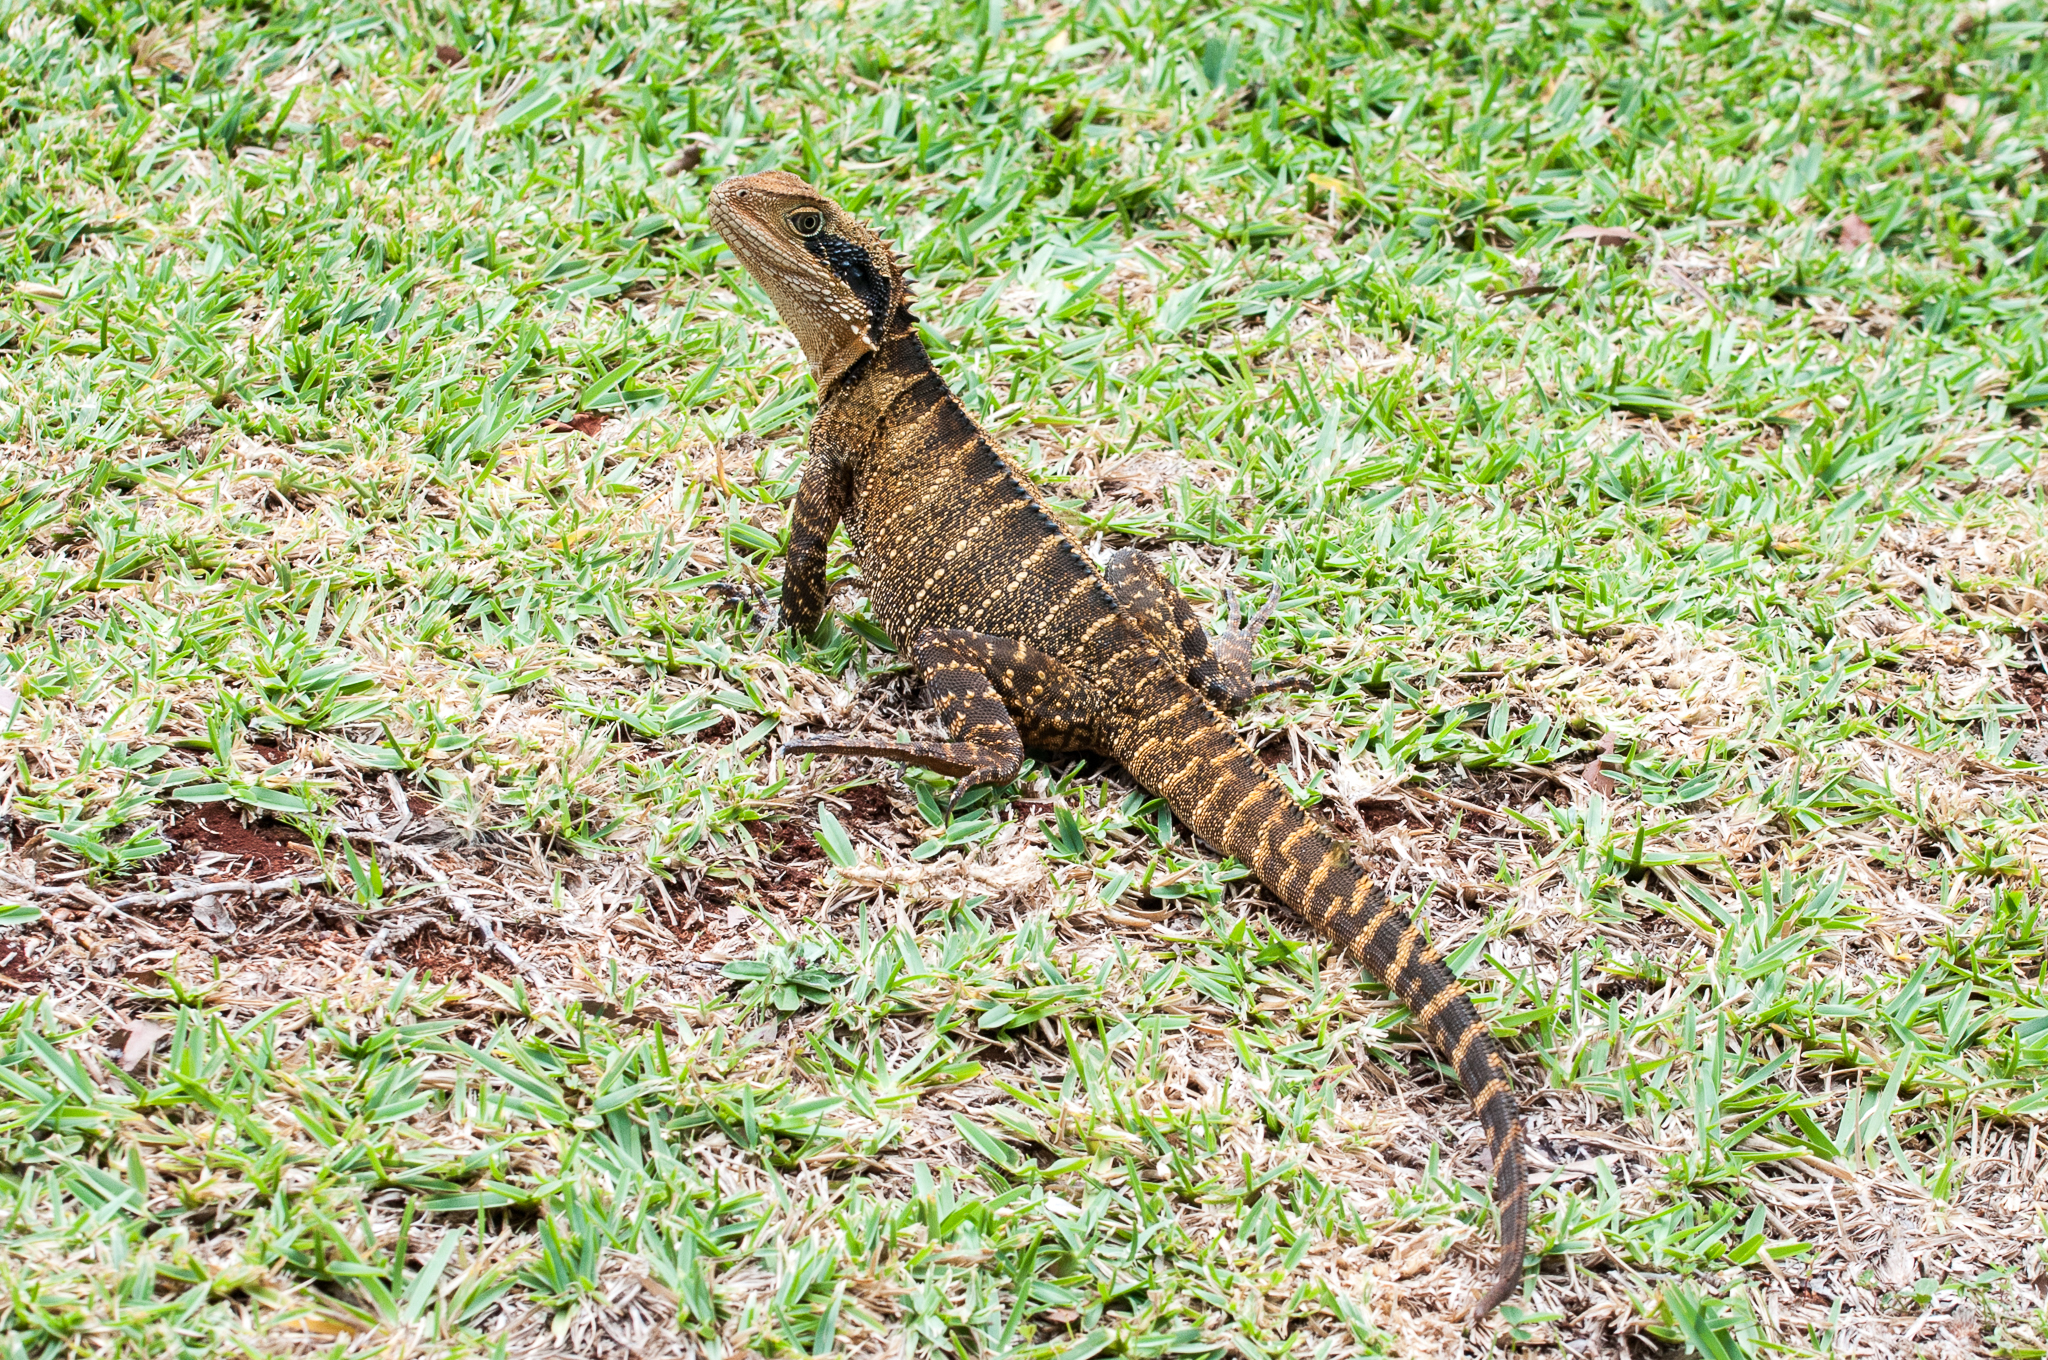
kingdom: Animalia
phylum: Chordata
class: Squamata
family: Agamidae
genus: Intellagama
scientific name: Intellagama lesueurii
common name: Eastern water dragon
